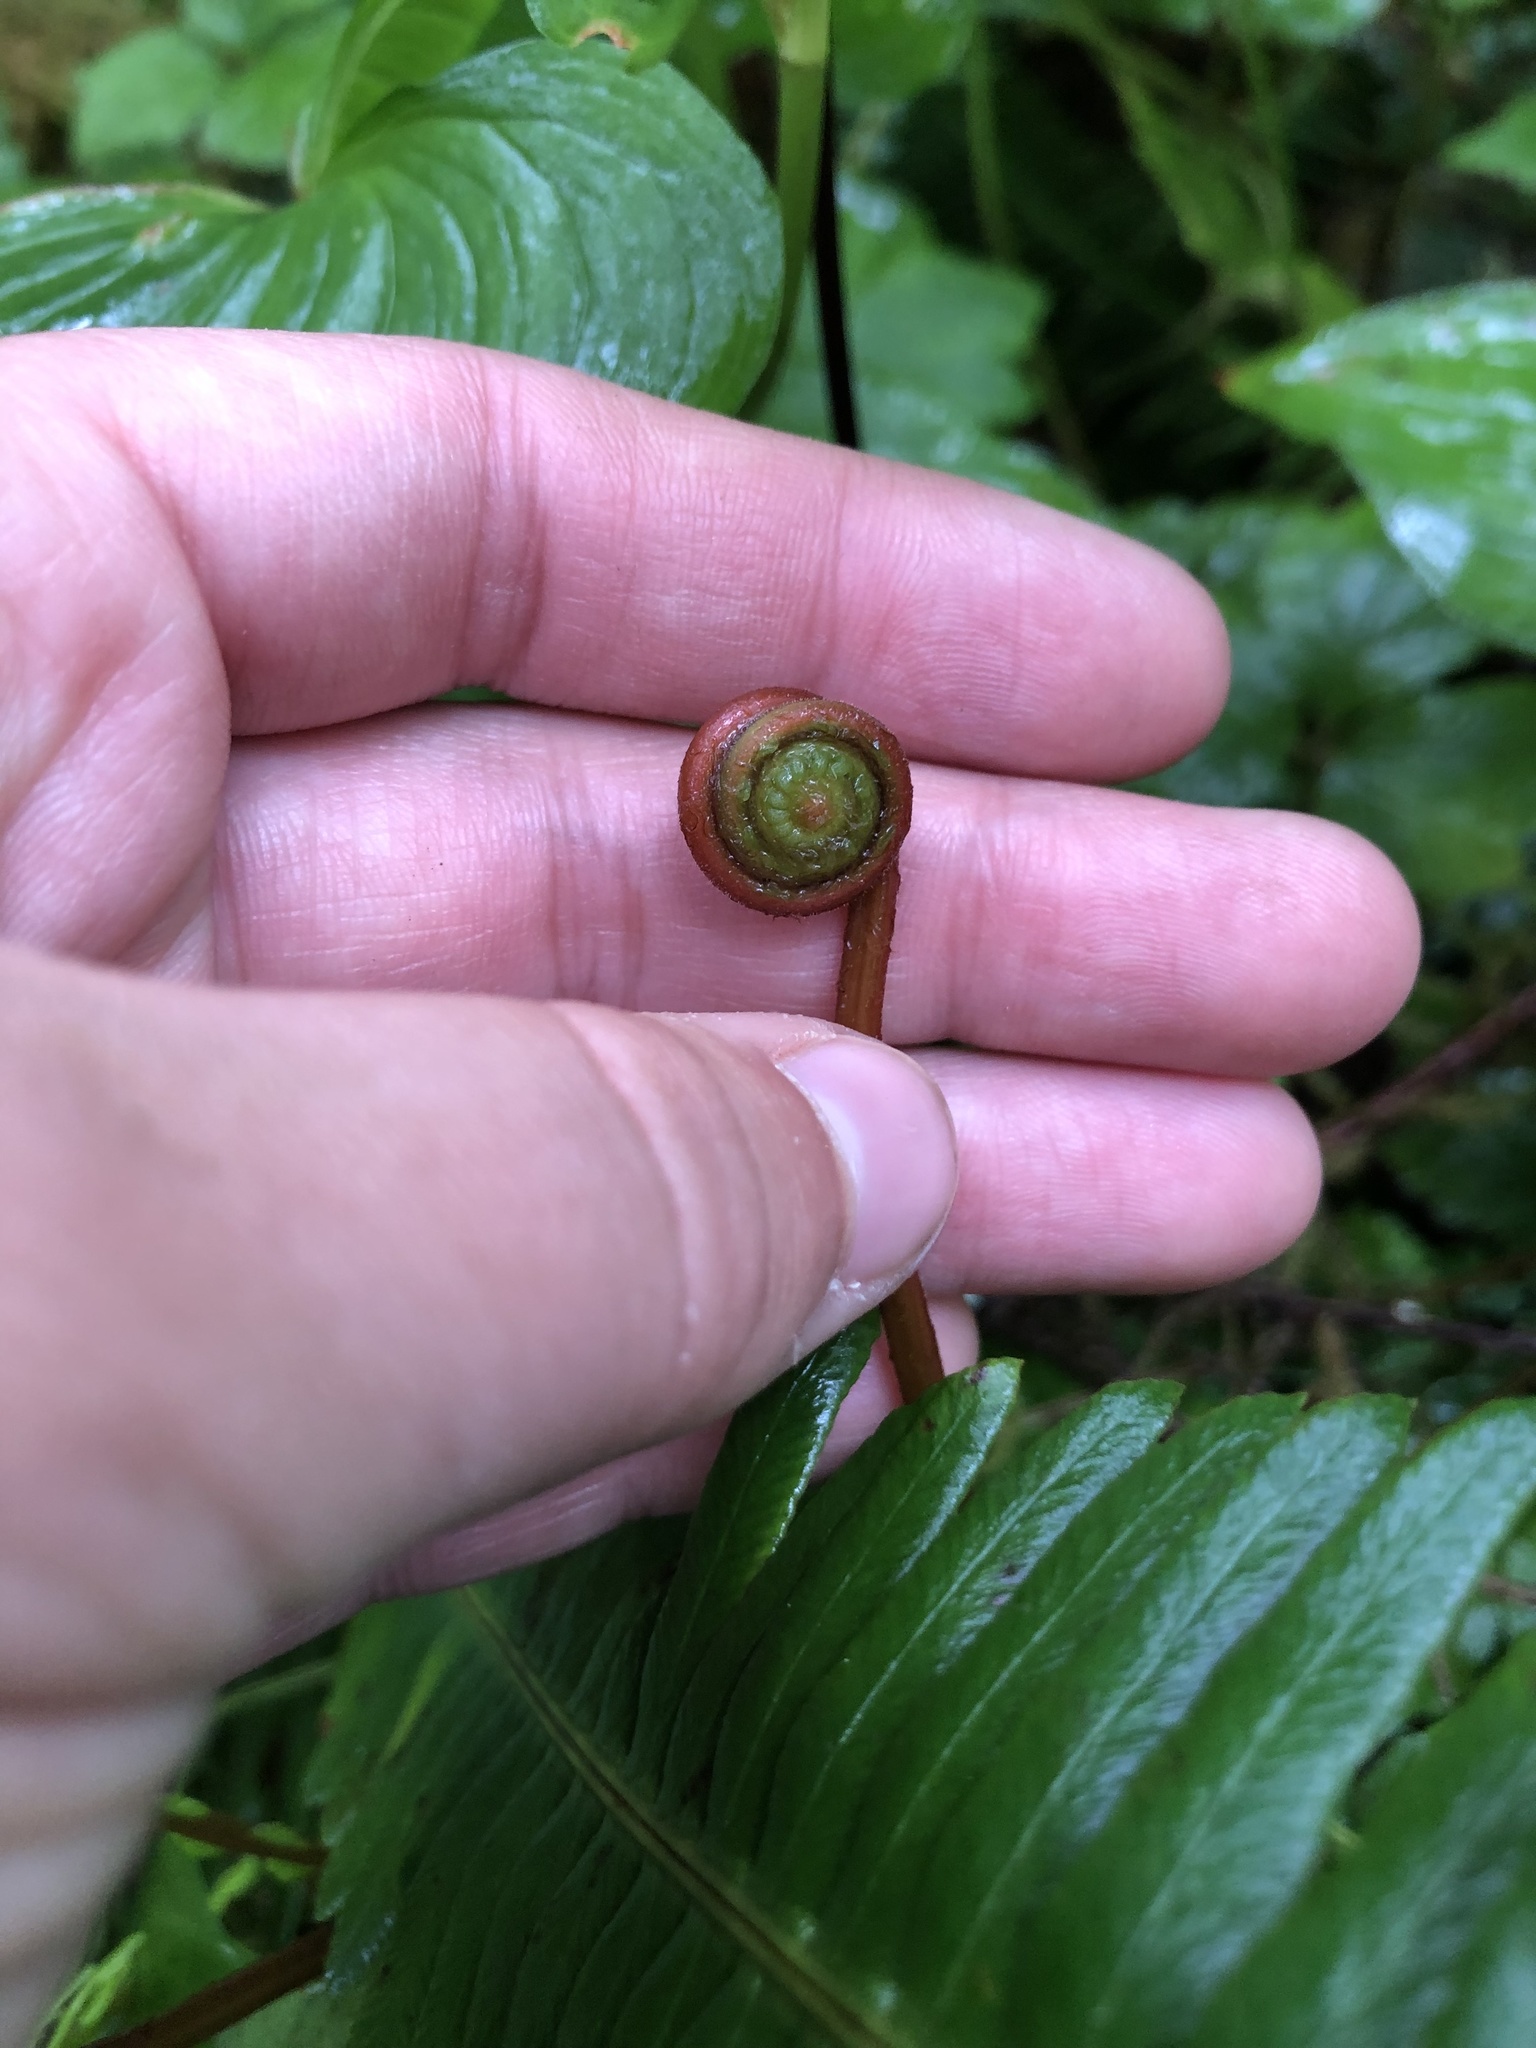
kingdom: Plantae
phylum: Tracheophyta
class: Polypodiopsida
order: Polypodiales
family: Blechnaceae
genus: Struthiopteris
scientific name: Struthiopteris spicant
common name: Deer fern
